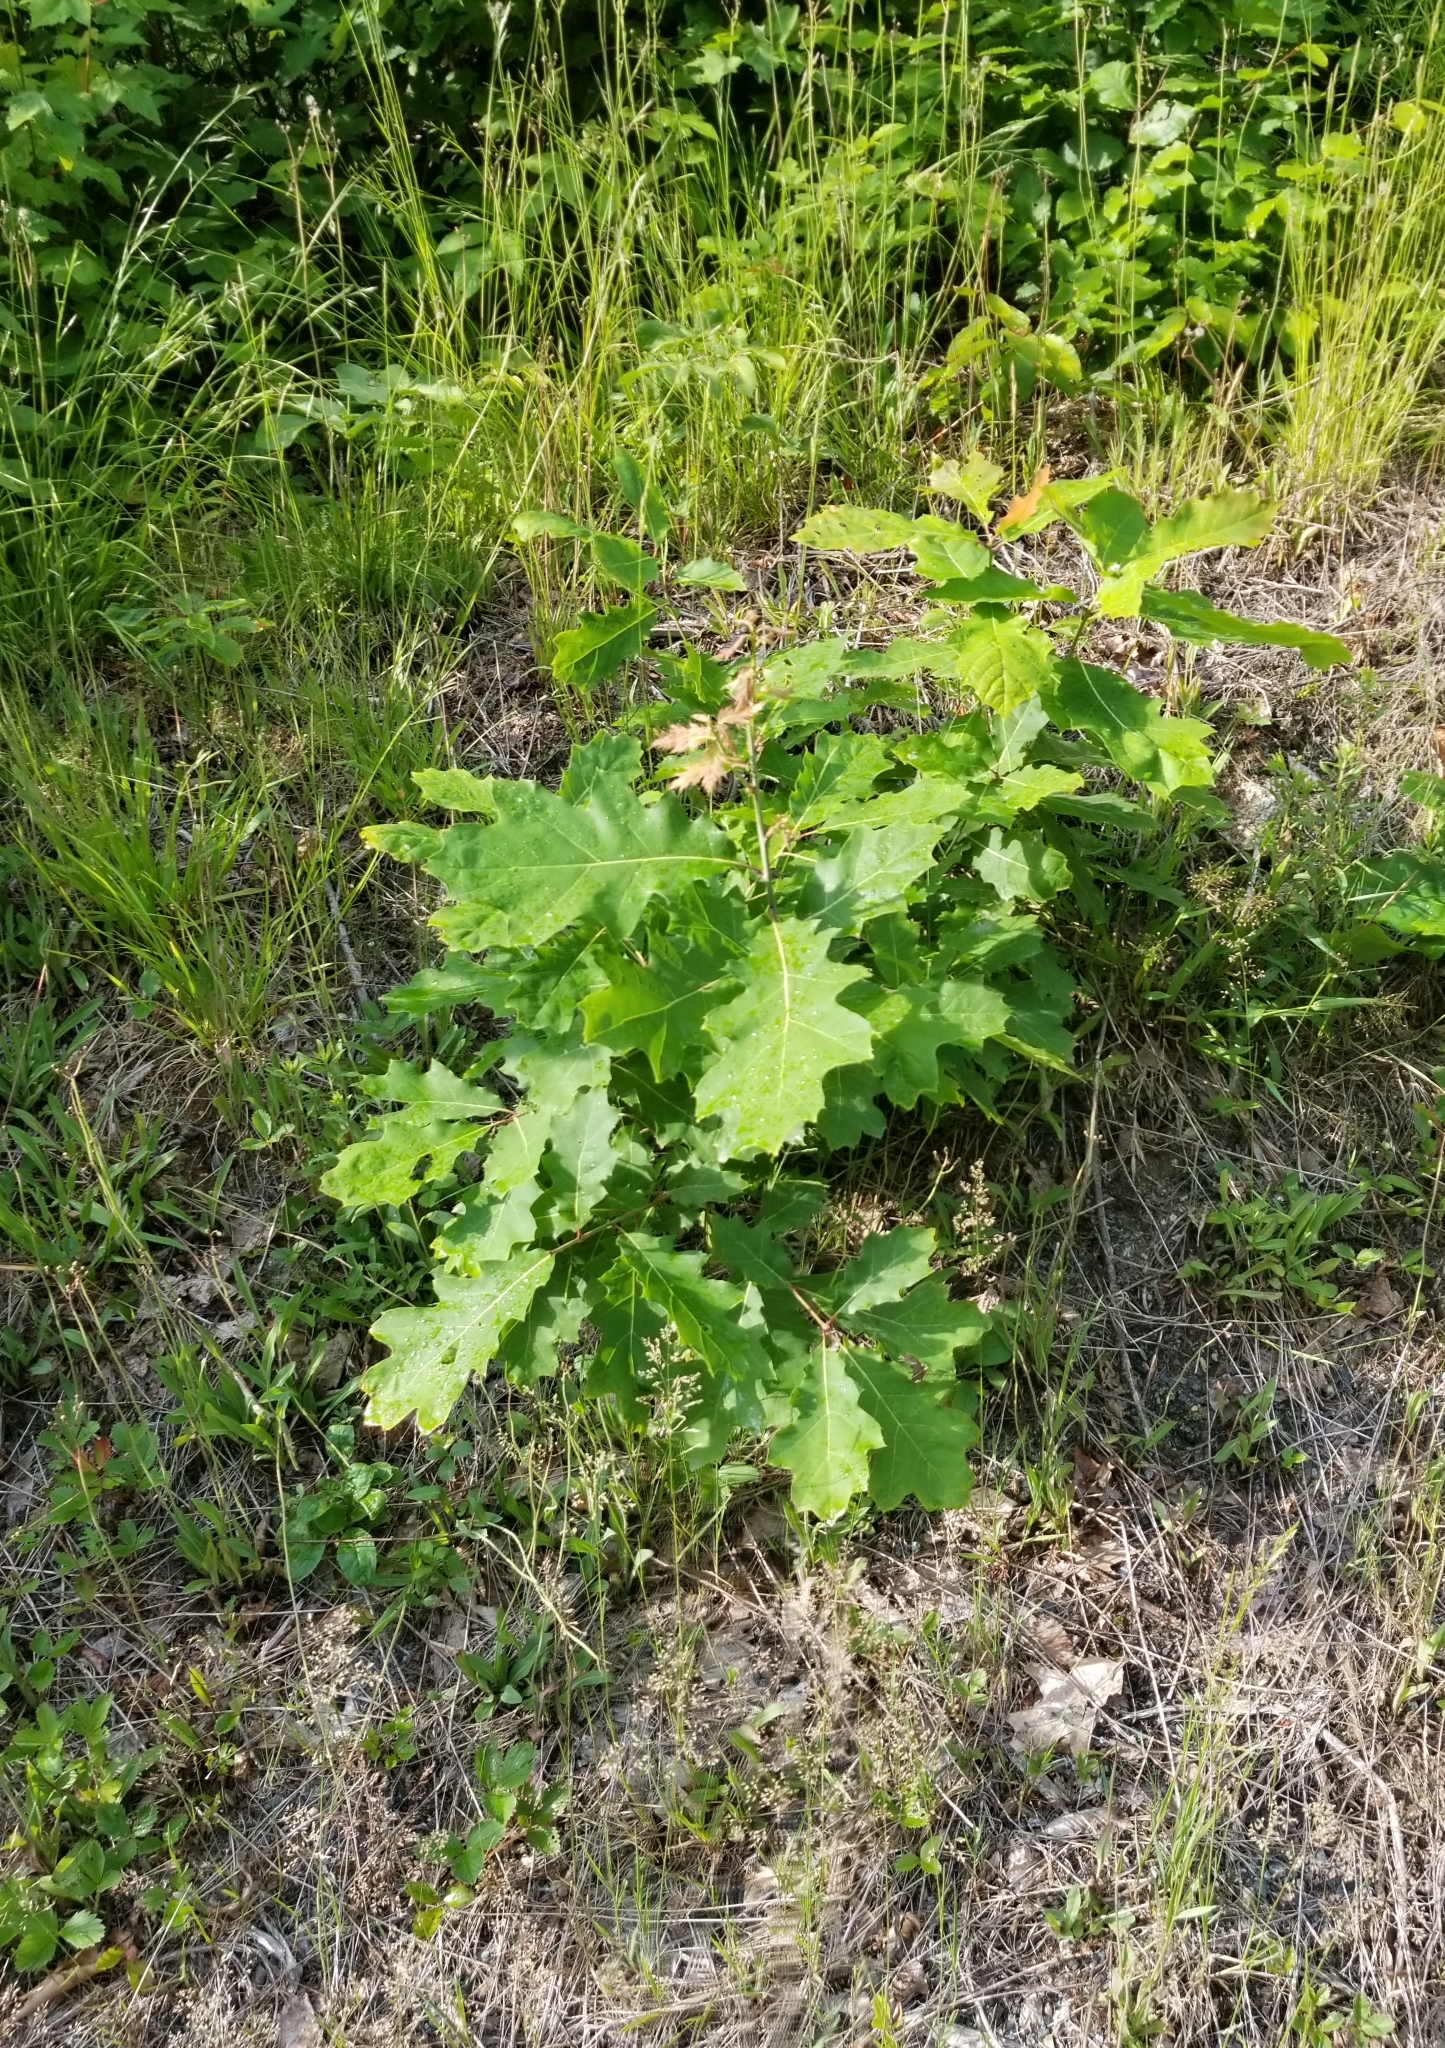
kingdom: Plantae
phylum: Tracheophyta
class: Magnoliopsida
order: Fagales
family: Fagaceae
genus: Quercus
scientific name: Quercus rubra
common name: Red oak
